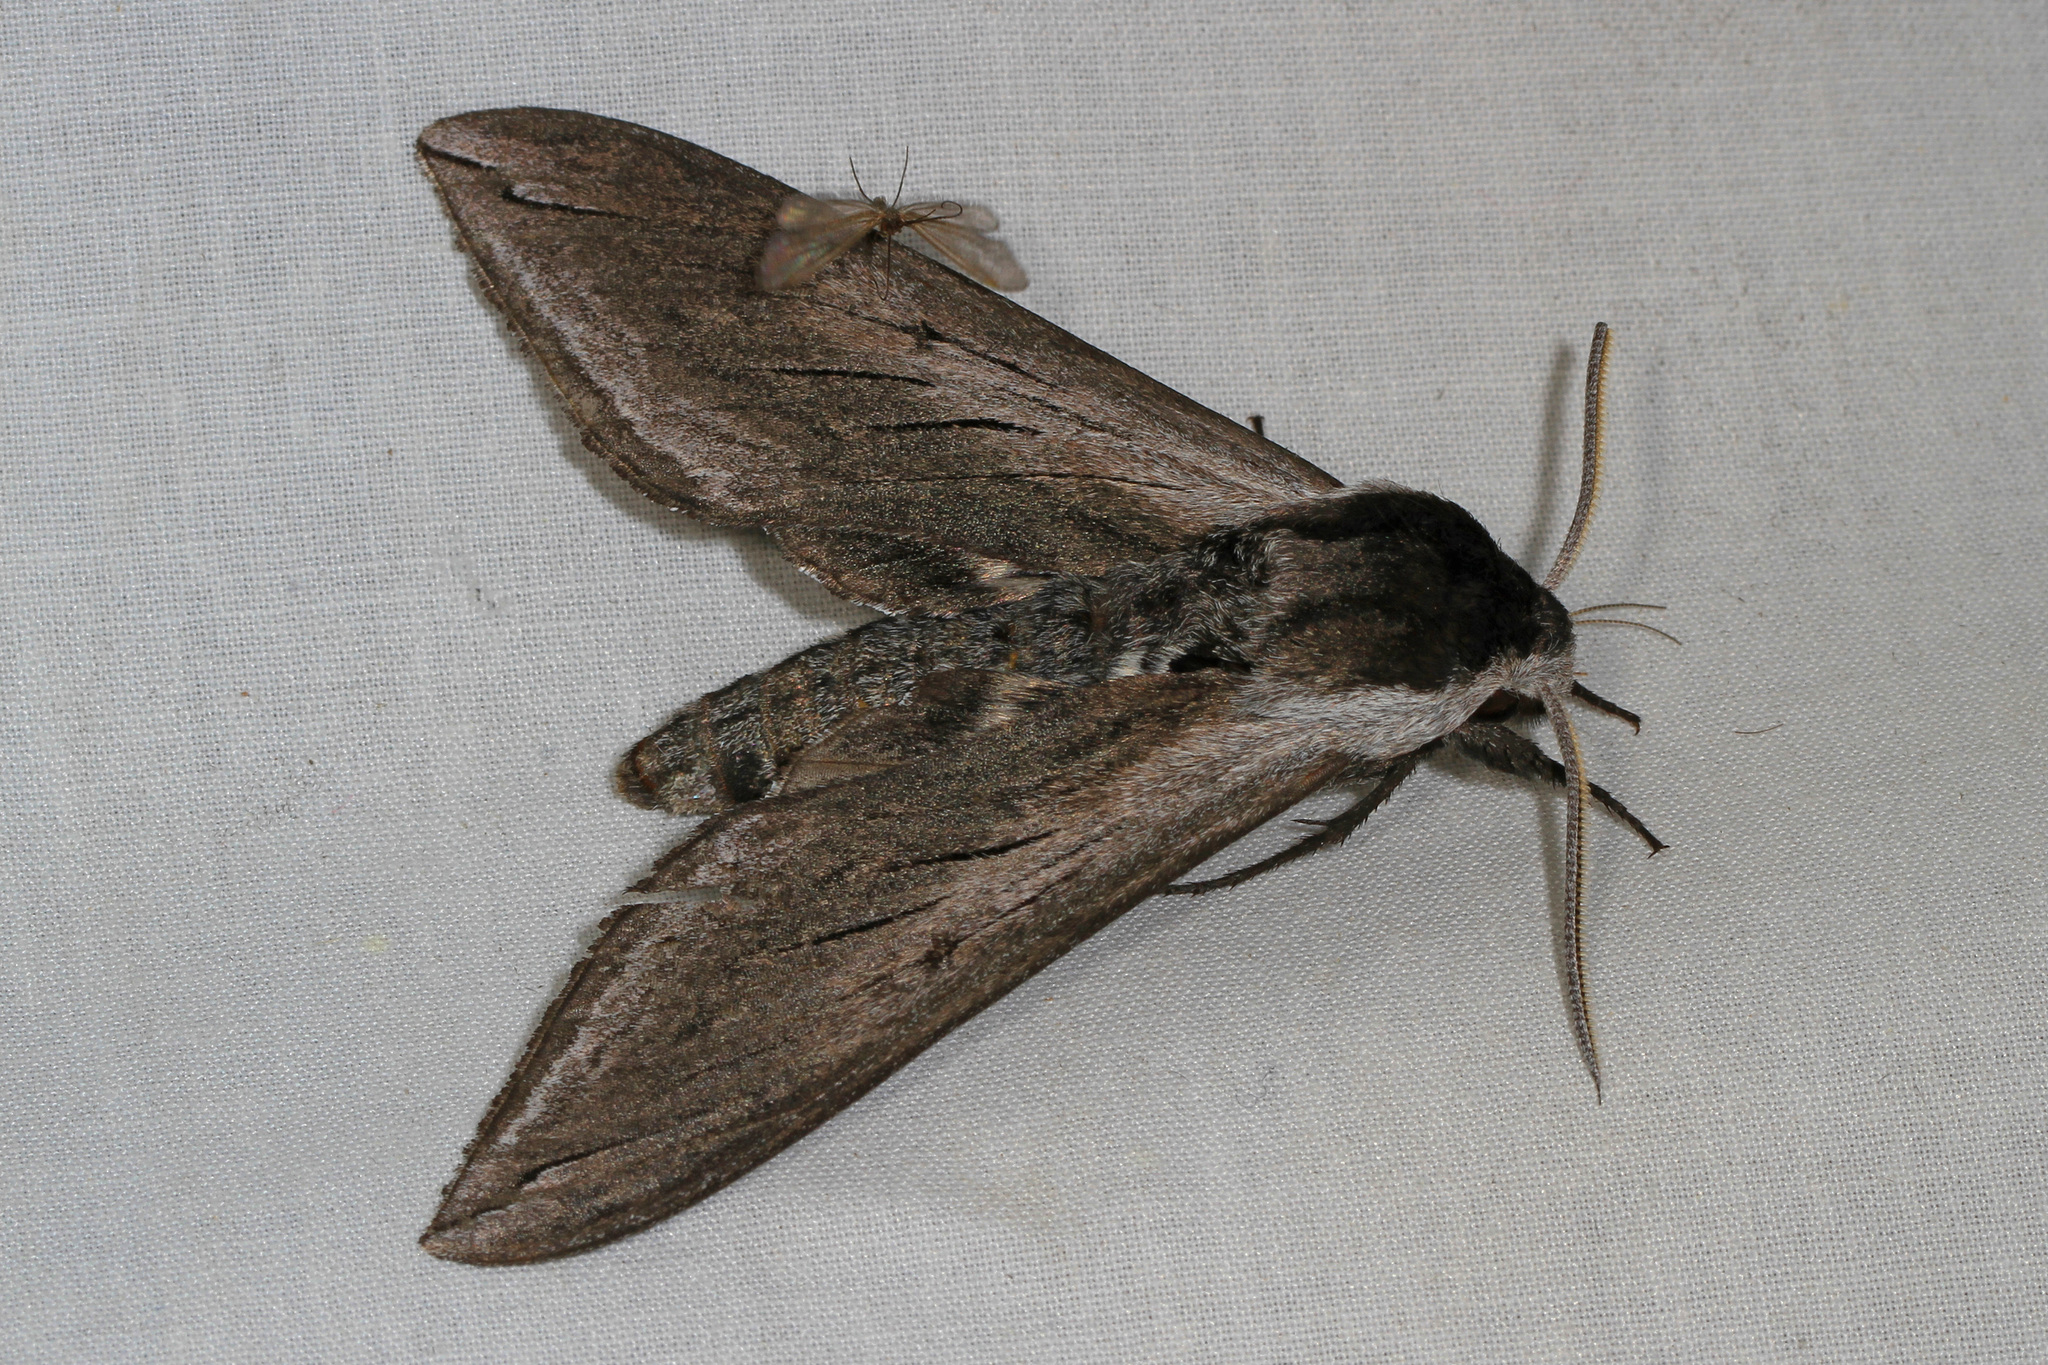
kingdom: Animalia
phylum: Arthropoda
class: Insecta
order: Lepidoptera
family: Sphingidae
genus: Sphinx
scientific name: Sphinx perelegans
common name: Elegant sphinx
